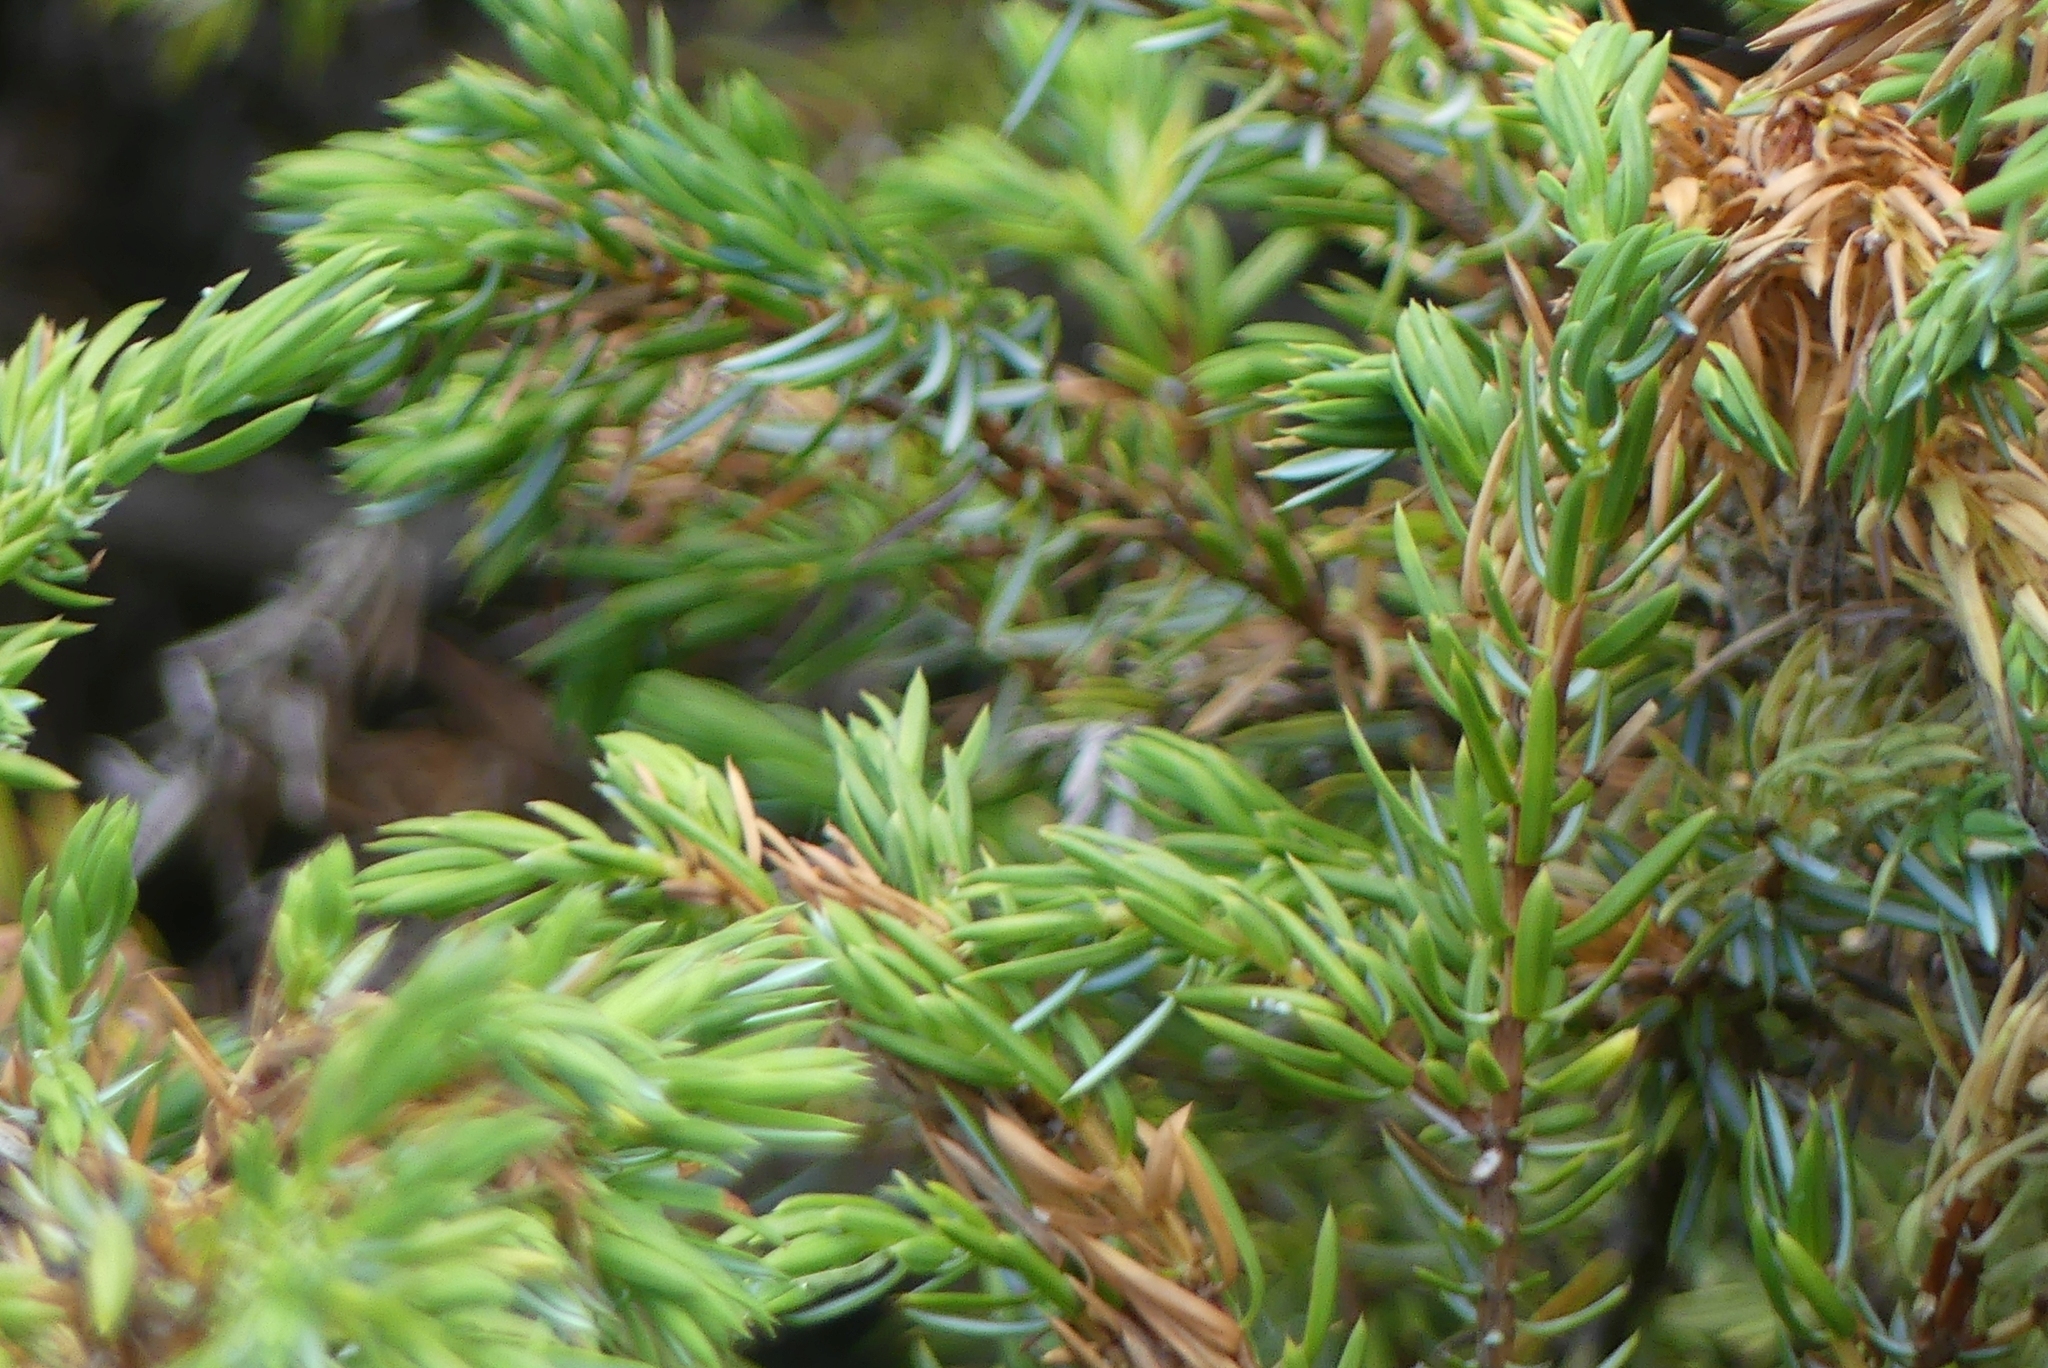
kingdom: Plantae
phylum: Tracheophyta
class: Pinopsida
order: Pinales
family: Cupressaceae
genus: Juniperus
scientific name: Juniperus communis
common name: Common juniper
